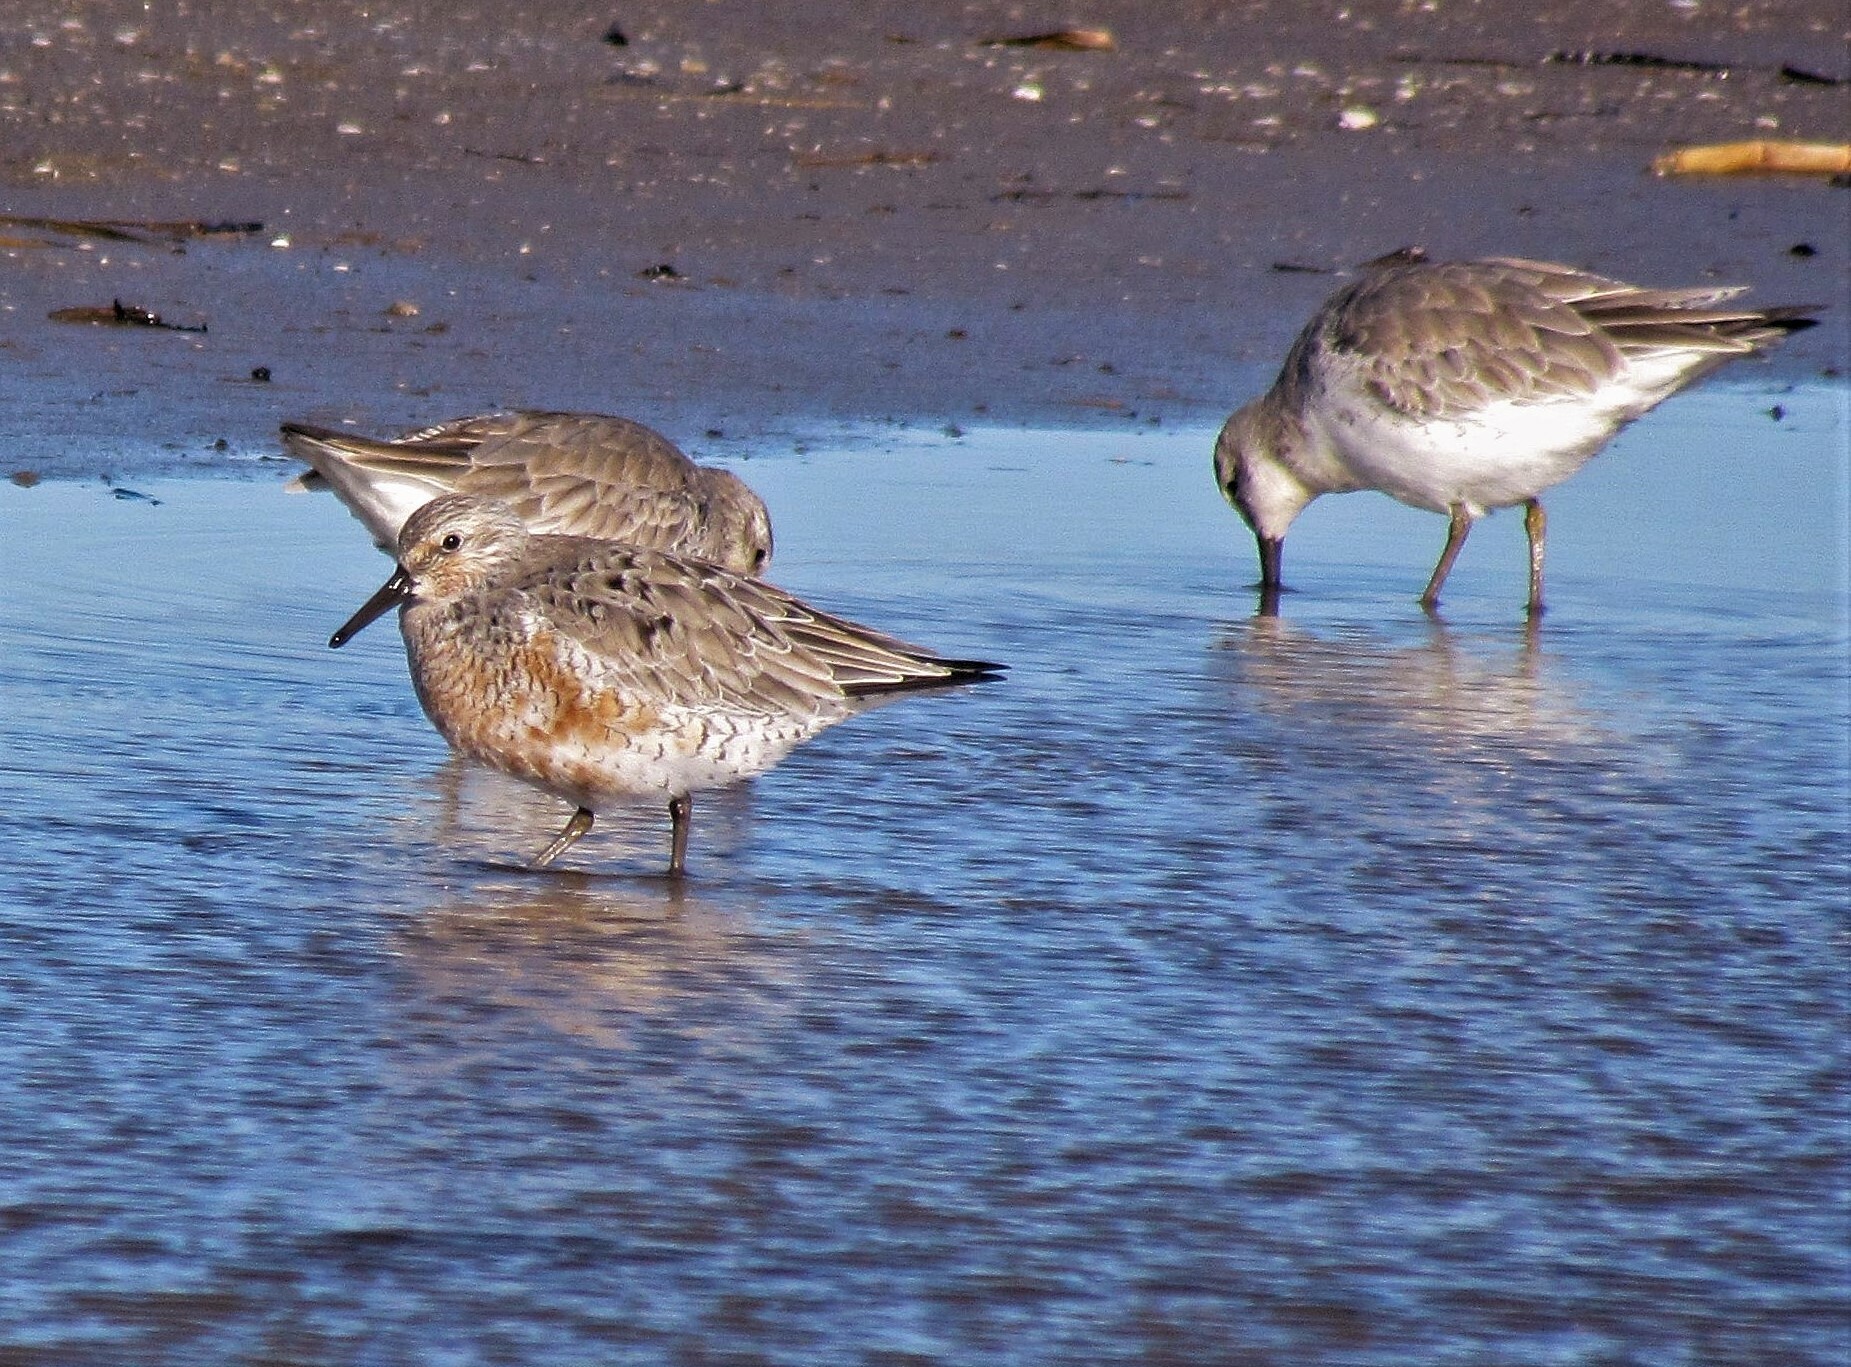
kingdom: Animalia
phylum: Chordata
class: Aves
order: Charadriiformes
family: Scolopacidae
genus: Calidris
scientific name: Calidris canutus
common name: Red knot
